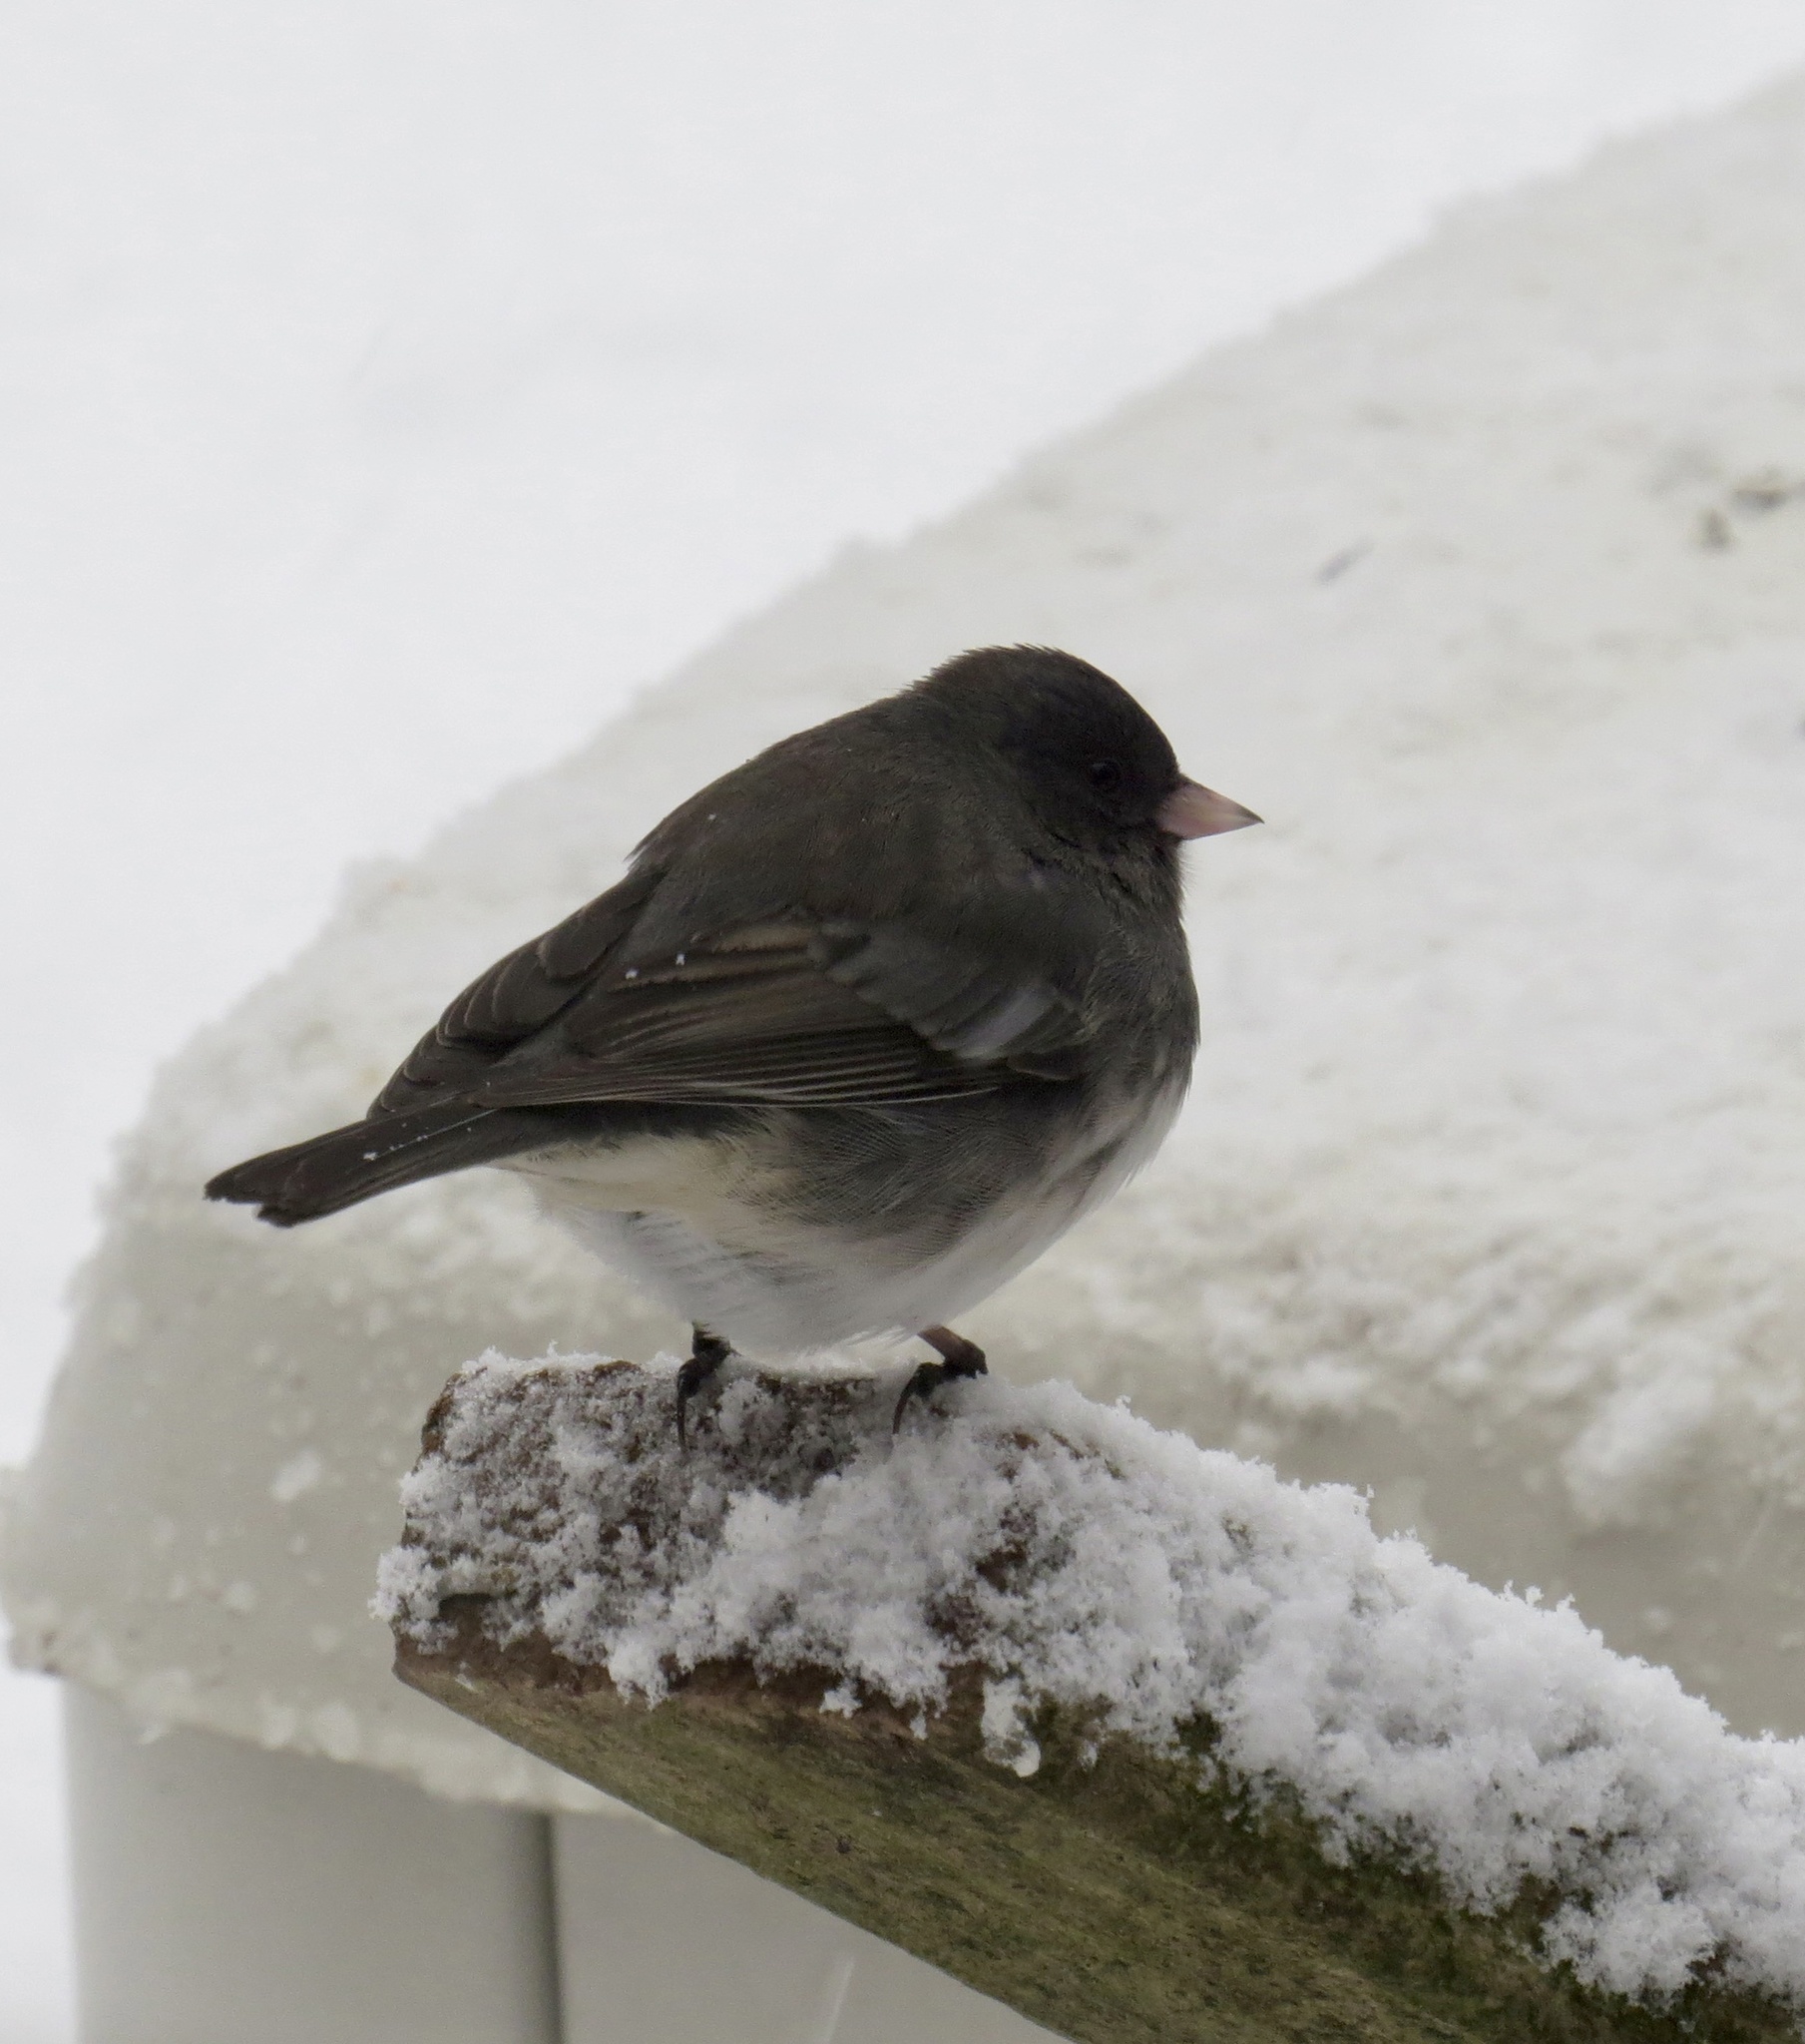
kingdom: Animalia
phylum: Chordata
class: Aves
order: Passeriformes
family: Passerellidae
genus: Junco
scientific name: Junco hyemalis
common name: Dark-eyed junco
